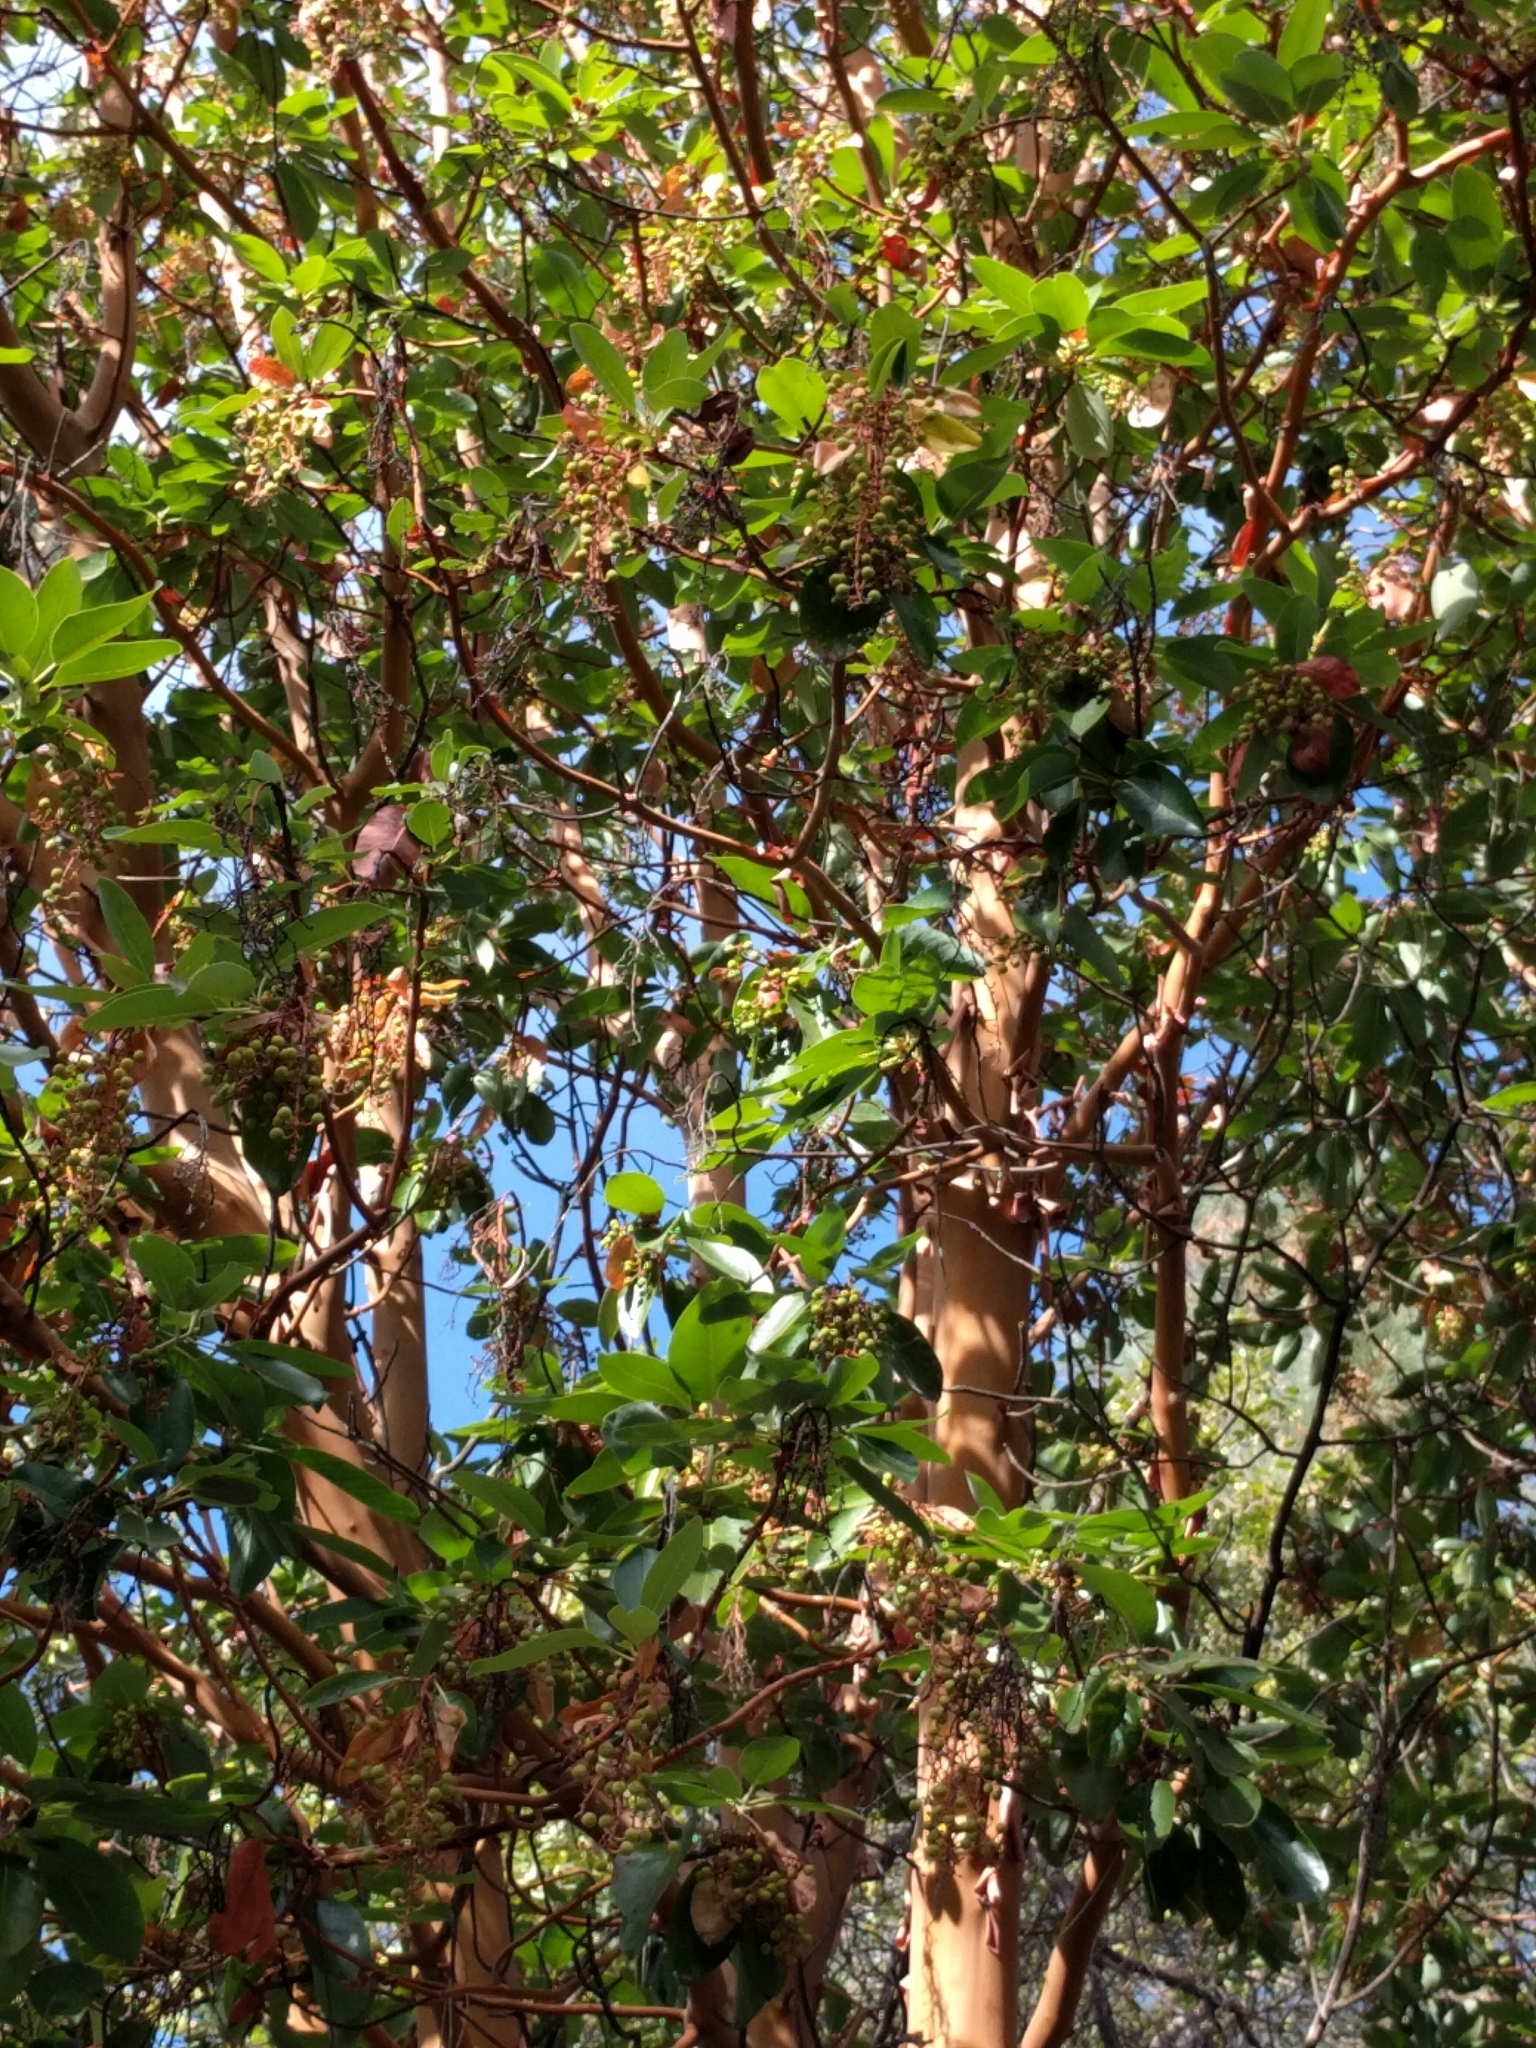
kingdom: Plantae
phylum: Tracheophyta
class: Magnoliopsida
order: Ericales
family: Ericaceae
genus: Arbutus
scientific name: Arbutus menziesii
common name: Pacific madrone
